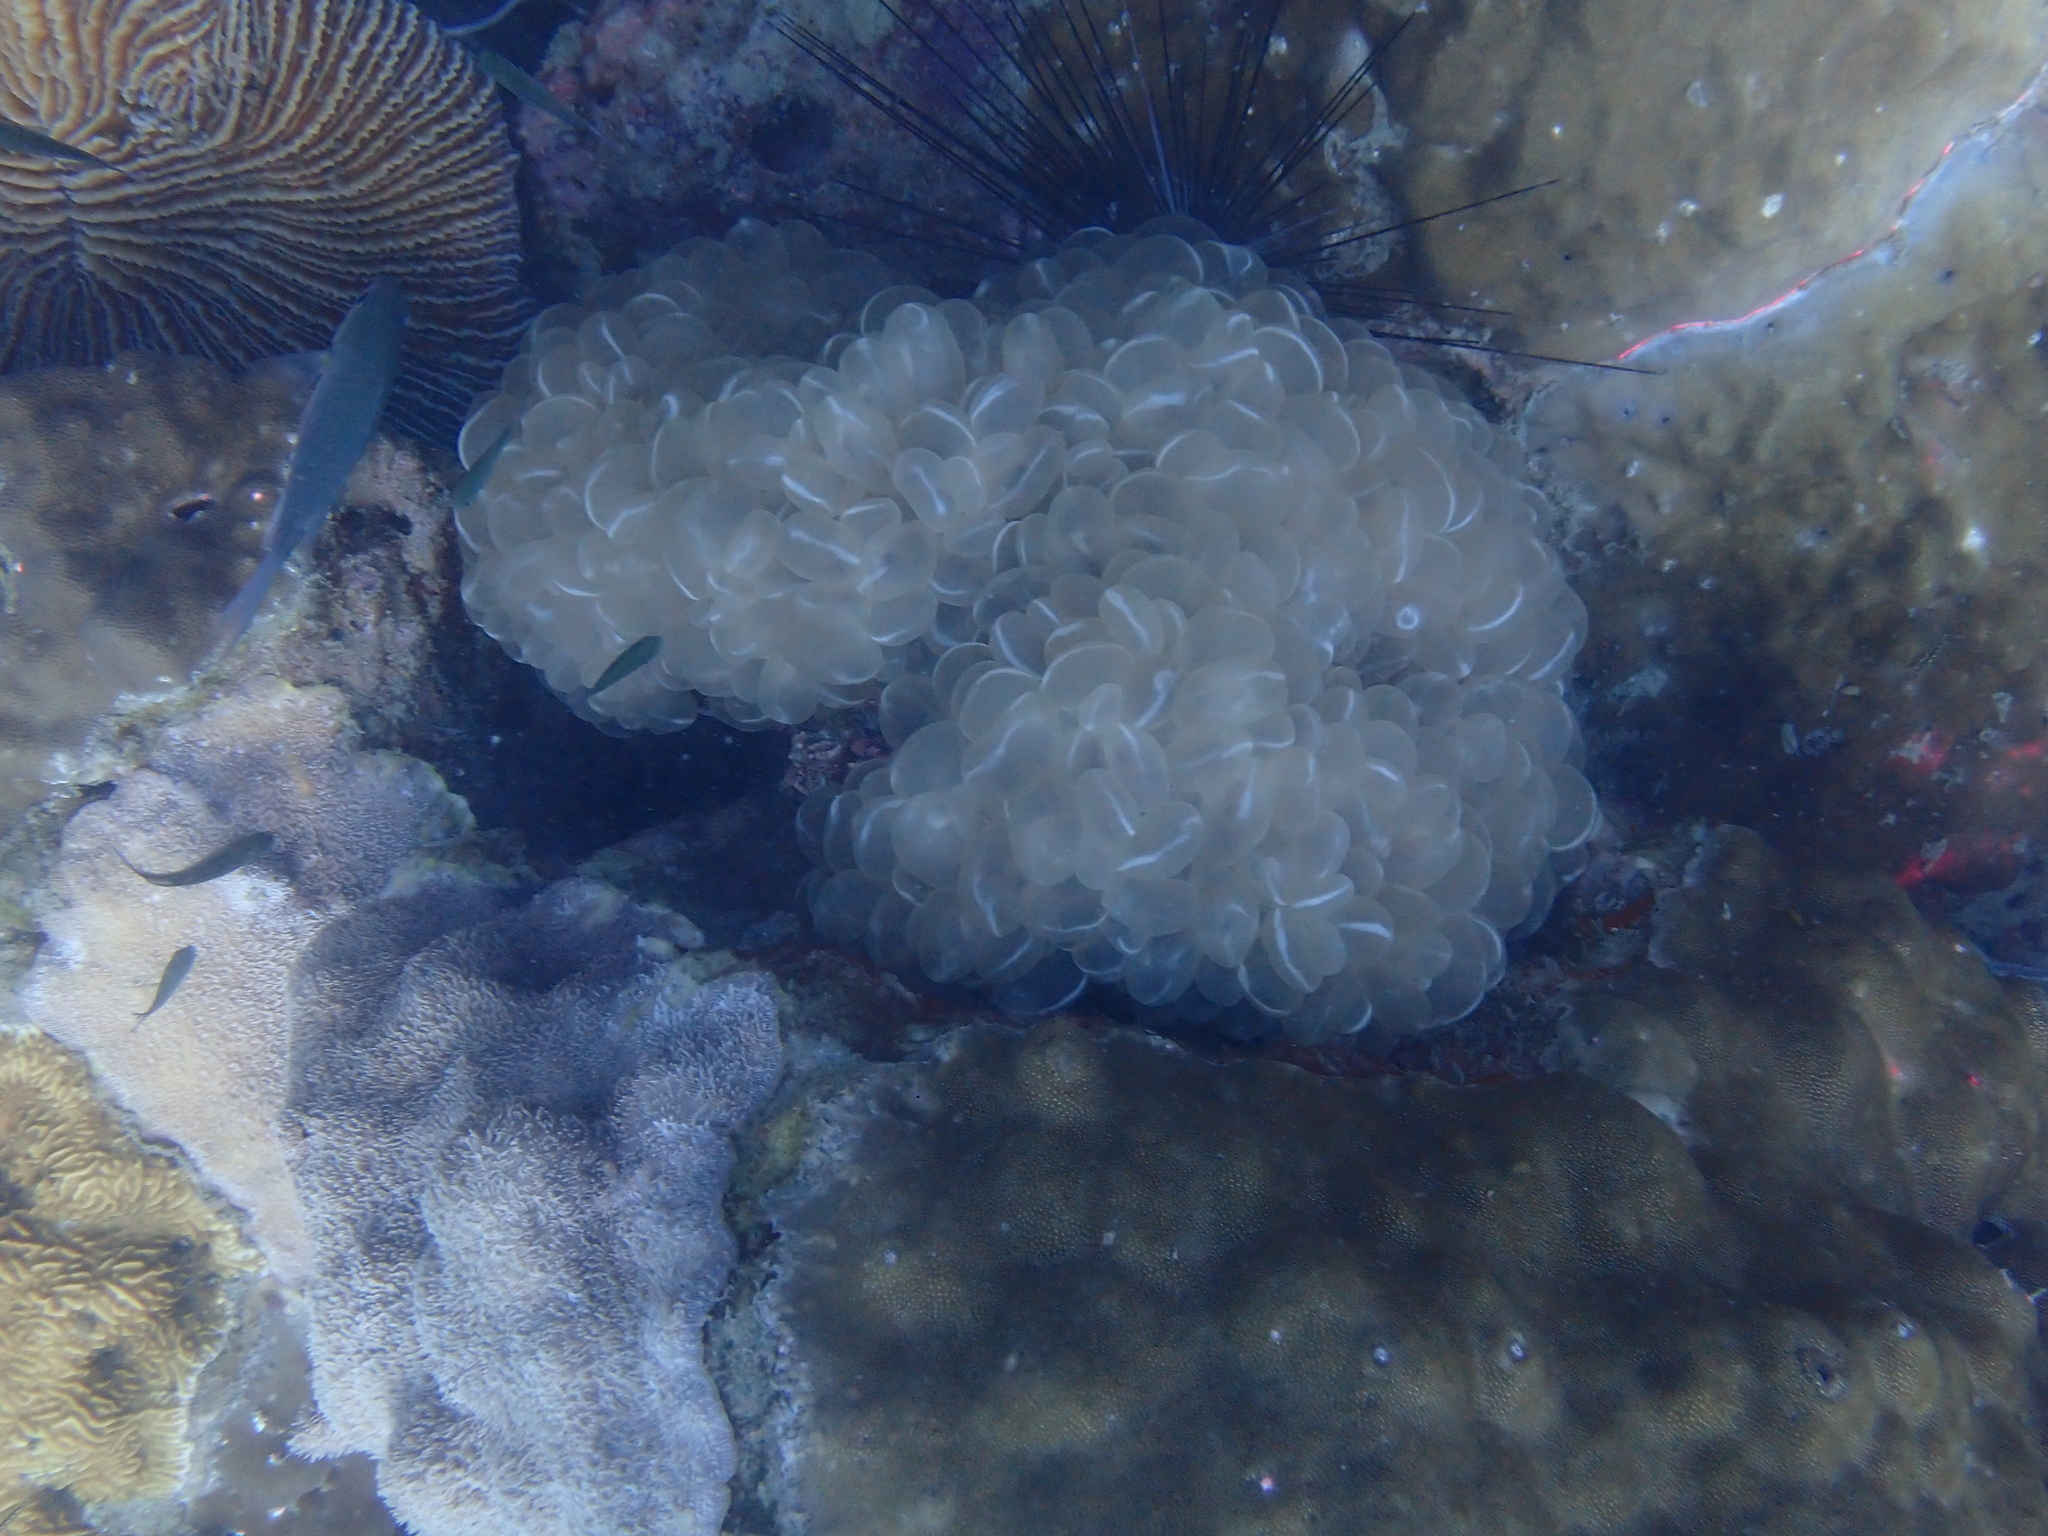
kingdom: Animalia
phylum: Cnidaria
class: Anthozoa
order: Scleractinia
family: Plerogyridae
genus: Plerogyra
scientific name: Plerogyra sinuosa
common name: Bubble coral
